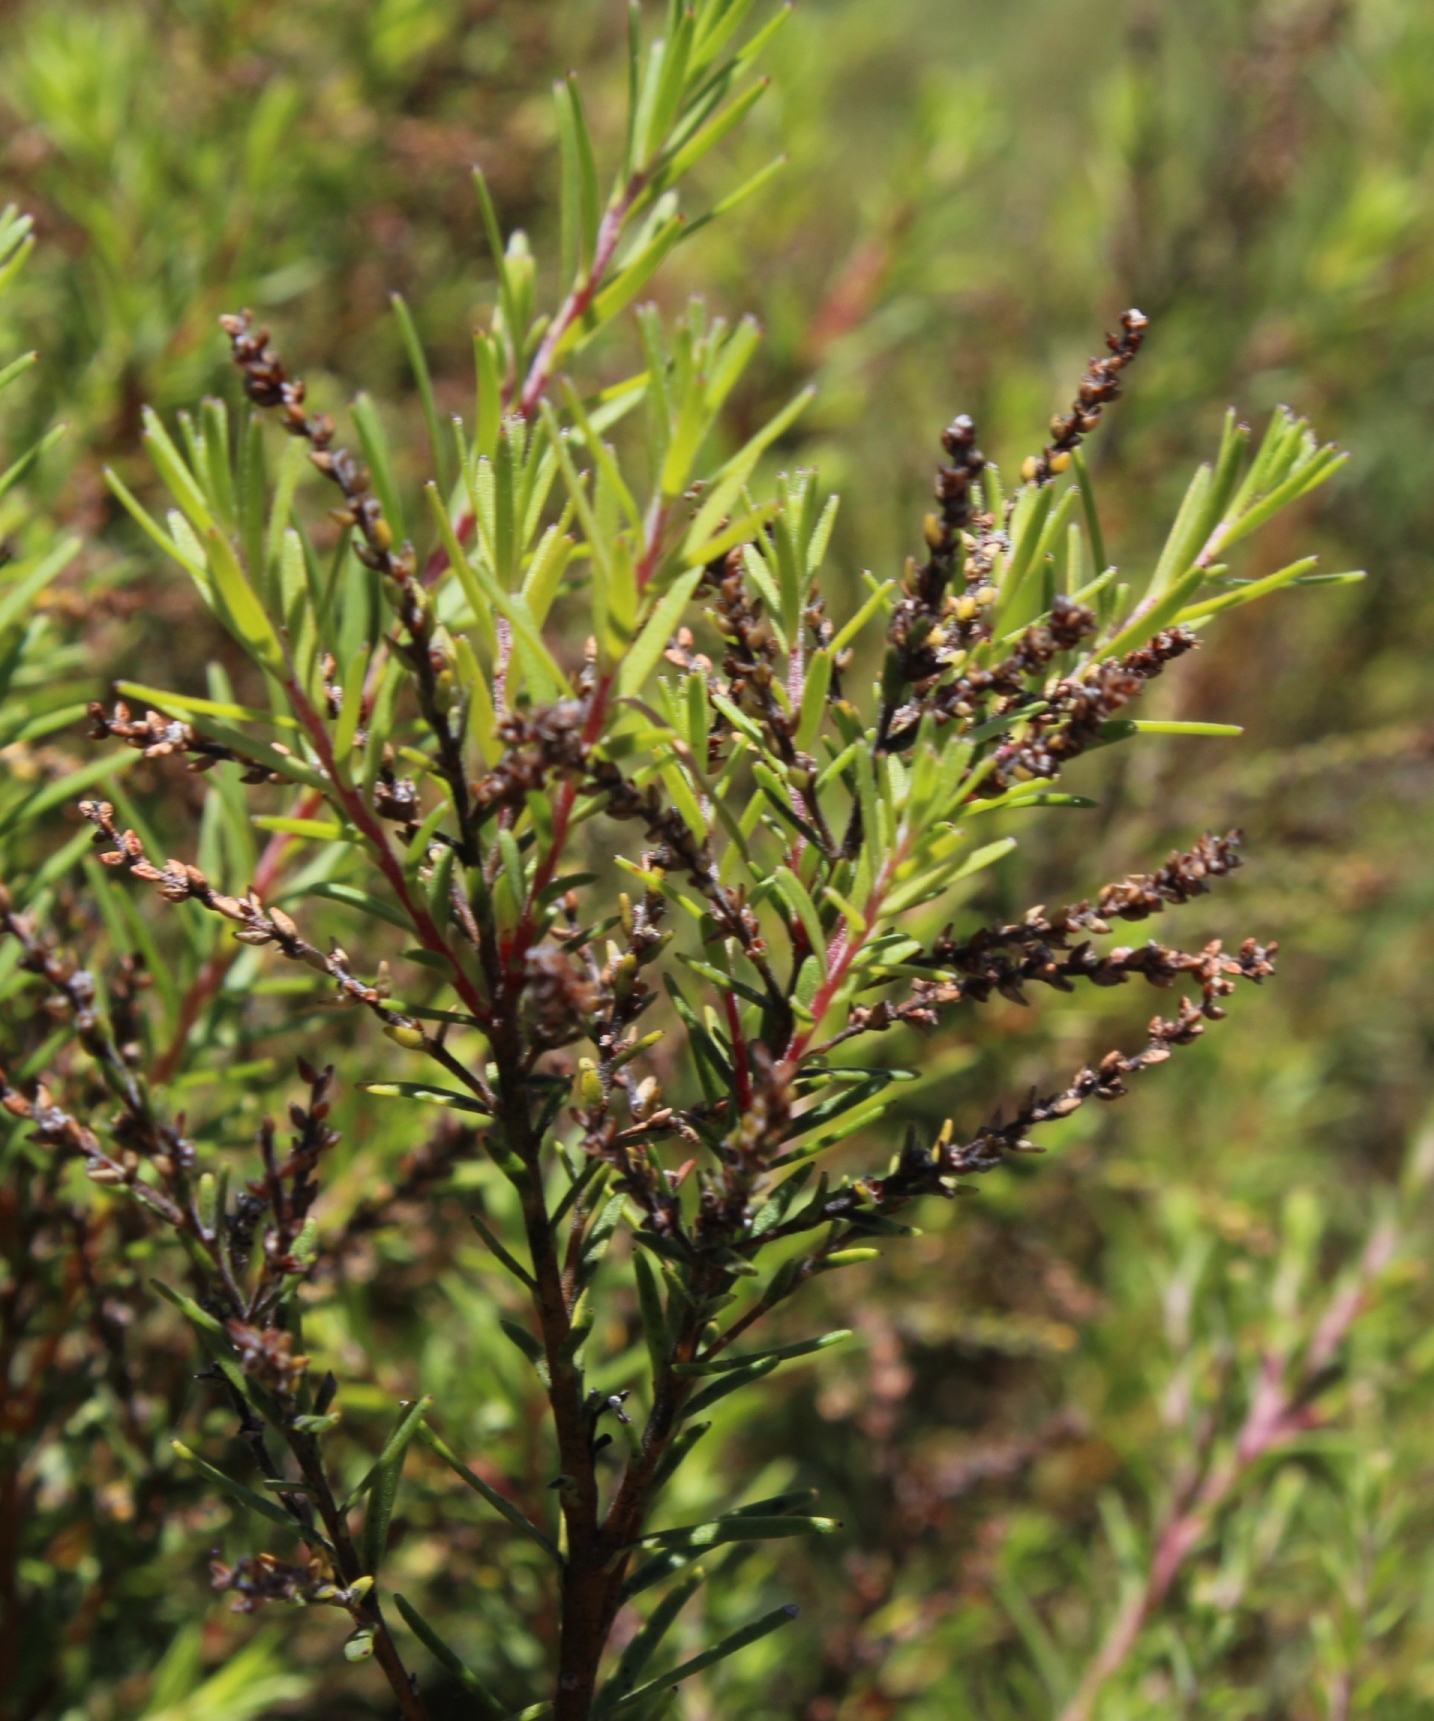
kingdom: Plantae
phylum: Tracheophyta
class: Magnoliopsida
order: Bruniales
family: Bruniaceae
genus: Brunia
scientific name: Brunia africana
